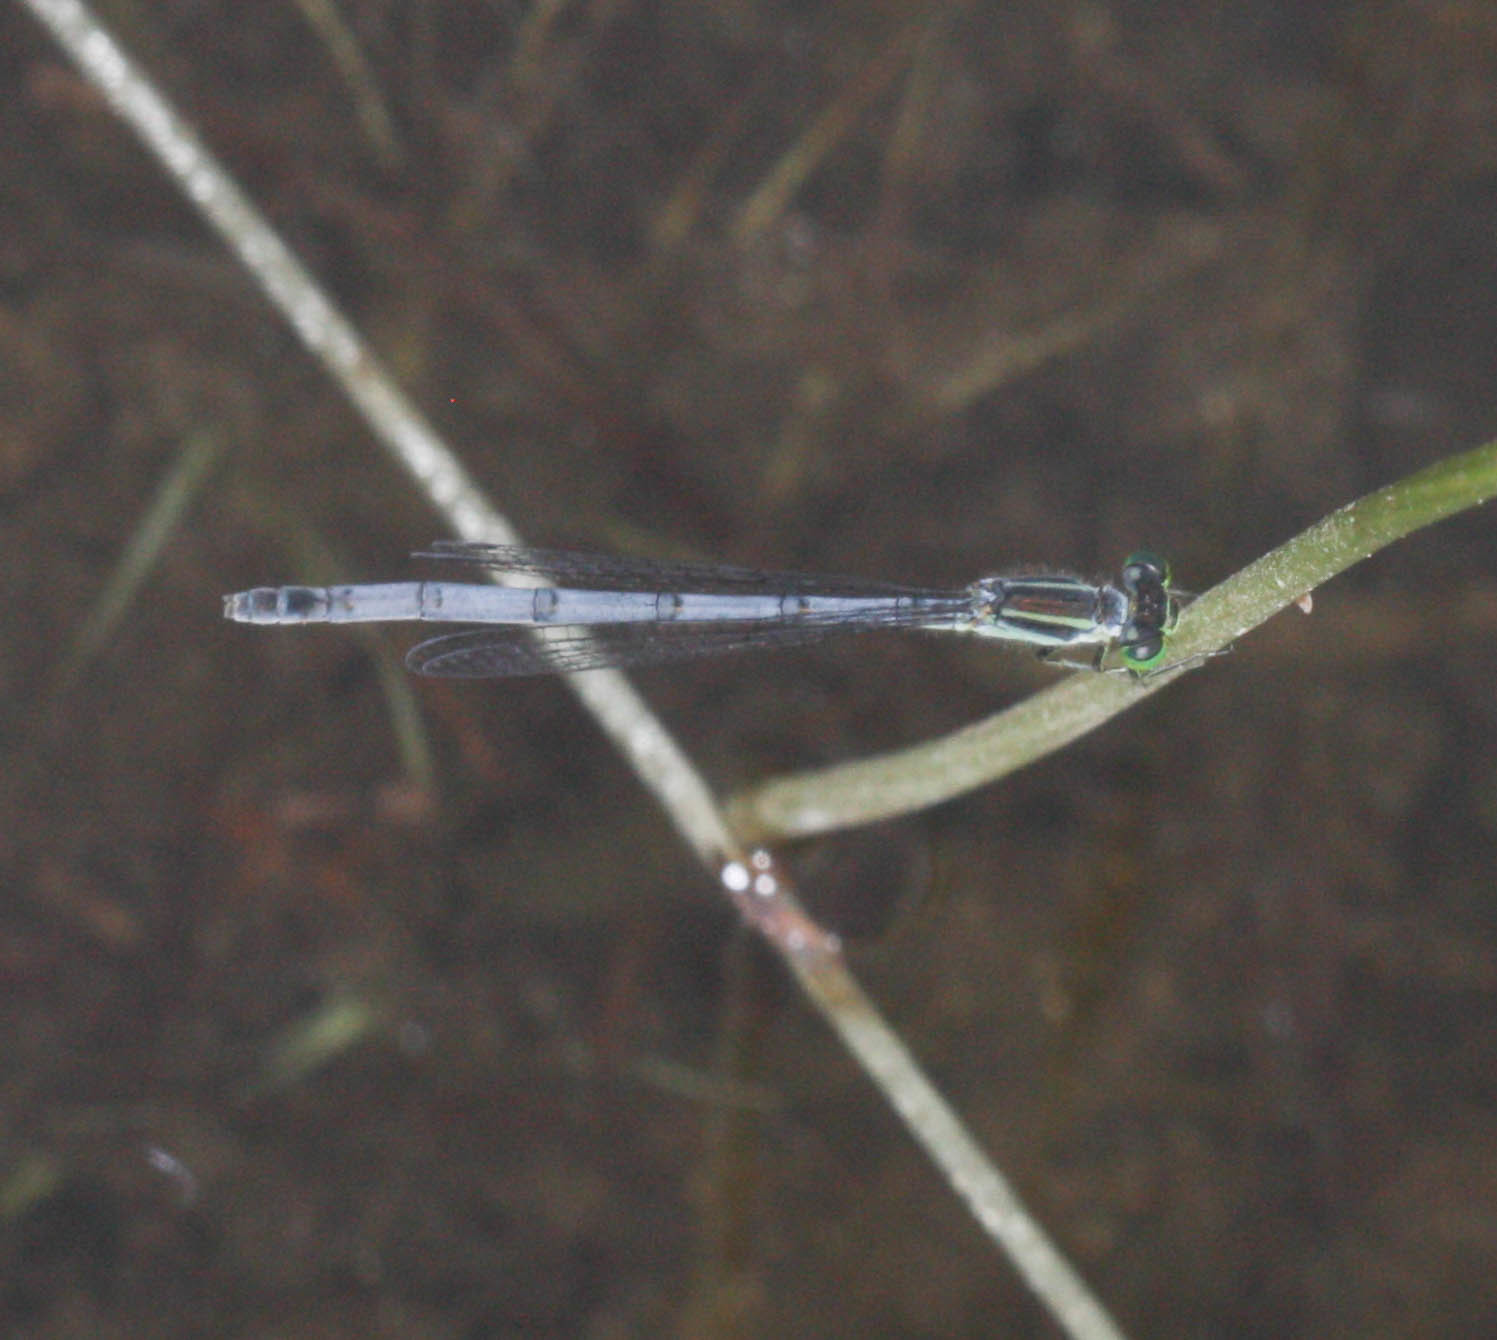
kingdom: Animalia
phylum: Arthropoda
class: Insecta
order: Odonata
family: Coenagrionidae
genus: Ischnura
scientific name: Ischnura verticalis
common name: Eastern forktail
